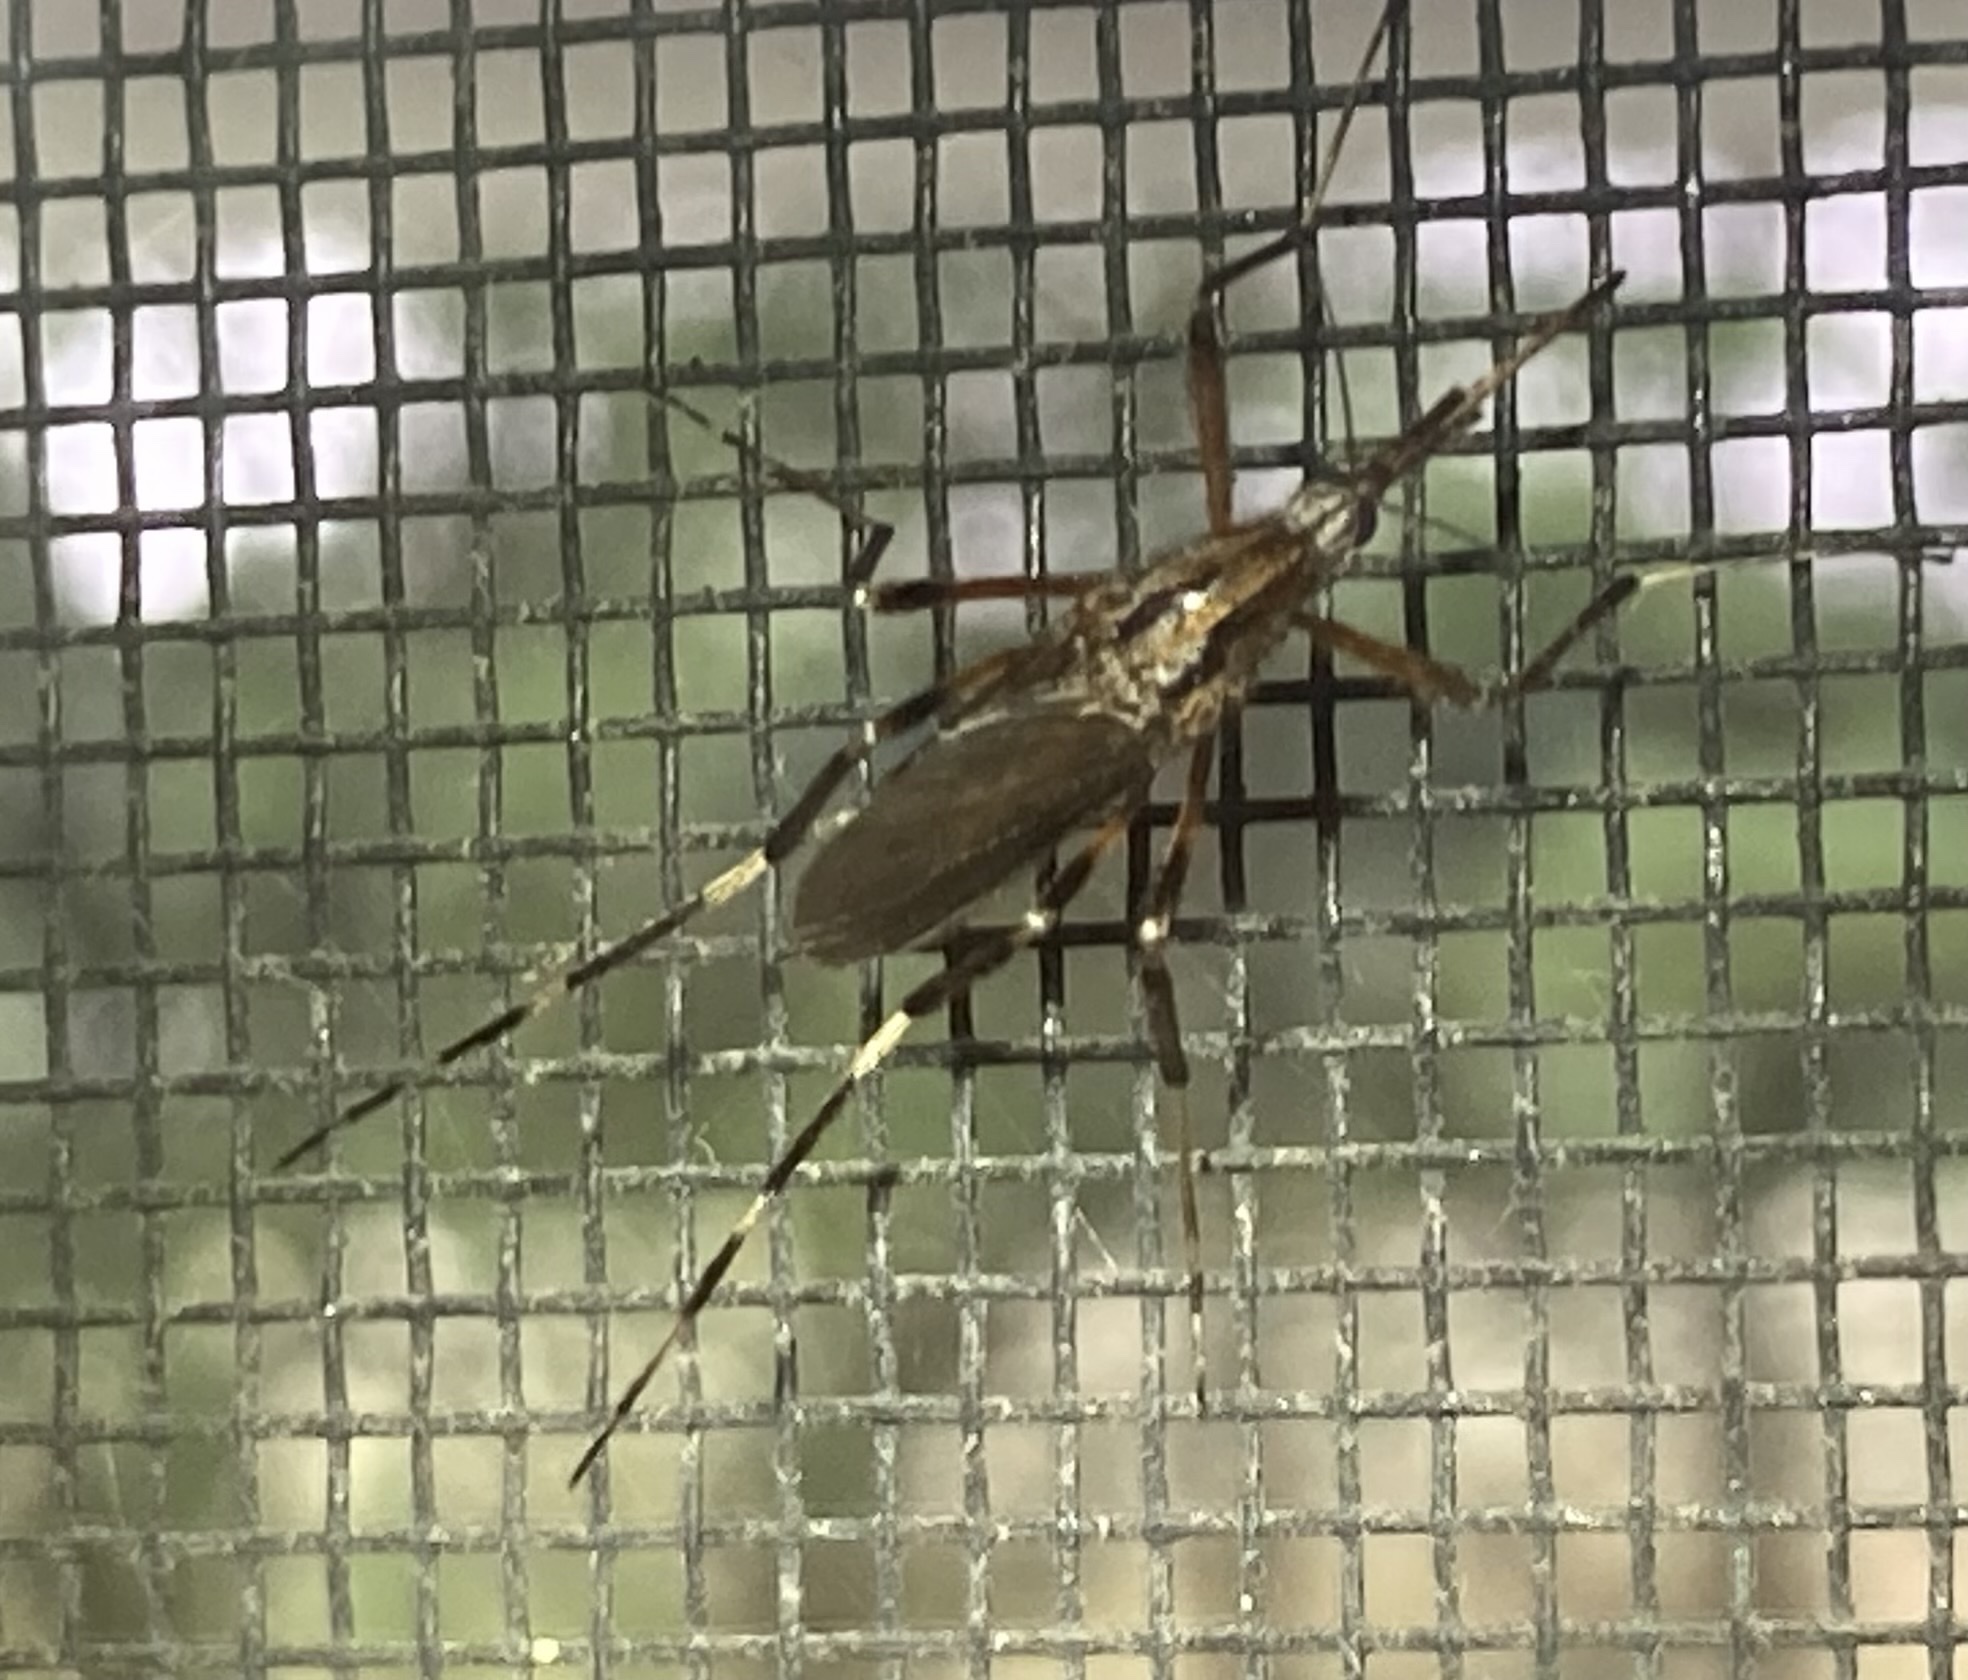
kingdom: Animalia
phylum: Arthropoda
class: Insecta
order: Diptera
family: Culicidae
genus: Psorophora
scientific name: Psorophora ciliata
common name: Gallinipper
